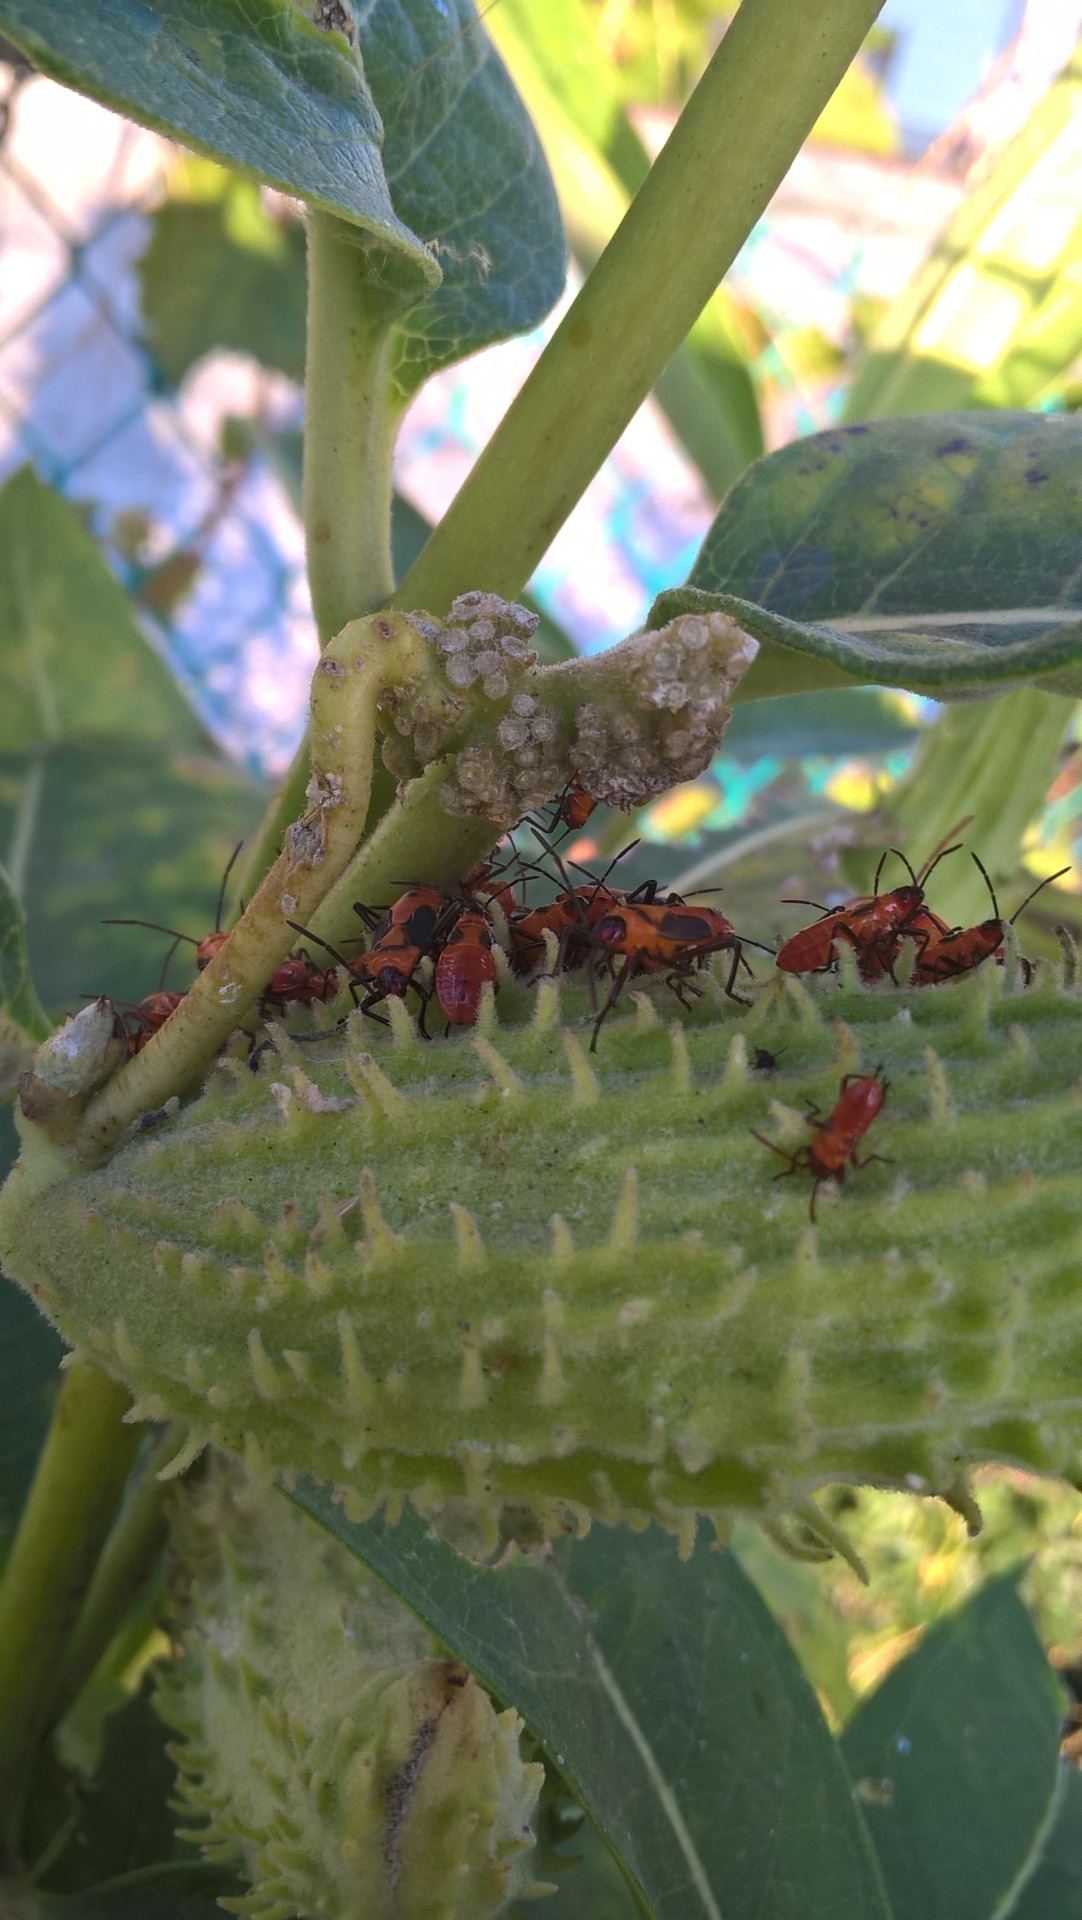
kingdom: Animalia
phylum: Arthropoda
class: Insecta
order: Hemiptera
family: Lygaeidae
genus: Oncopeltus
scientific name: Oncopeltus fasciatus
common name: Large milkweed bug
